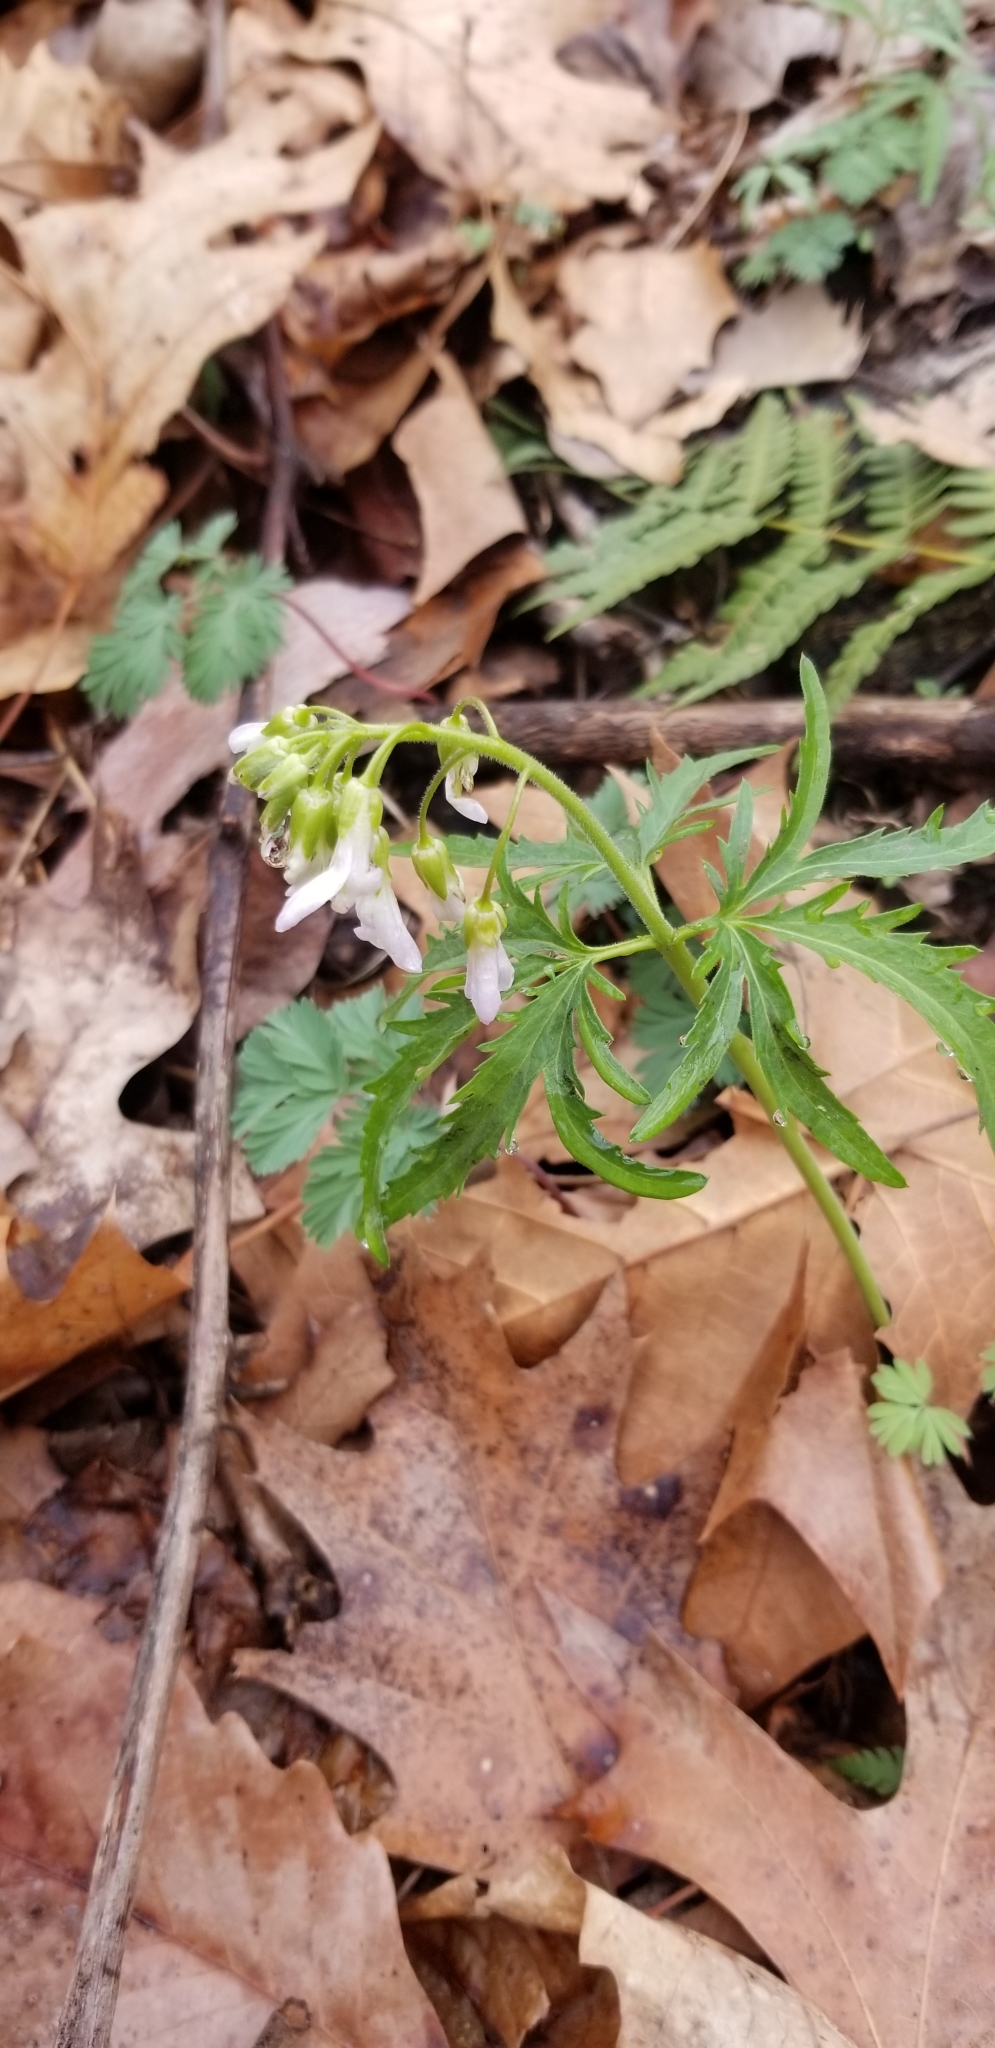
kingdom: Plantae
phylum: Tracheophyta
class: Magnoliopsida
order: Brassicales
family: Brassicaceae
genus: Cardamine
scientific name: Cardamine concatenata
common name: Cut-leaf toothcup
